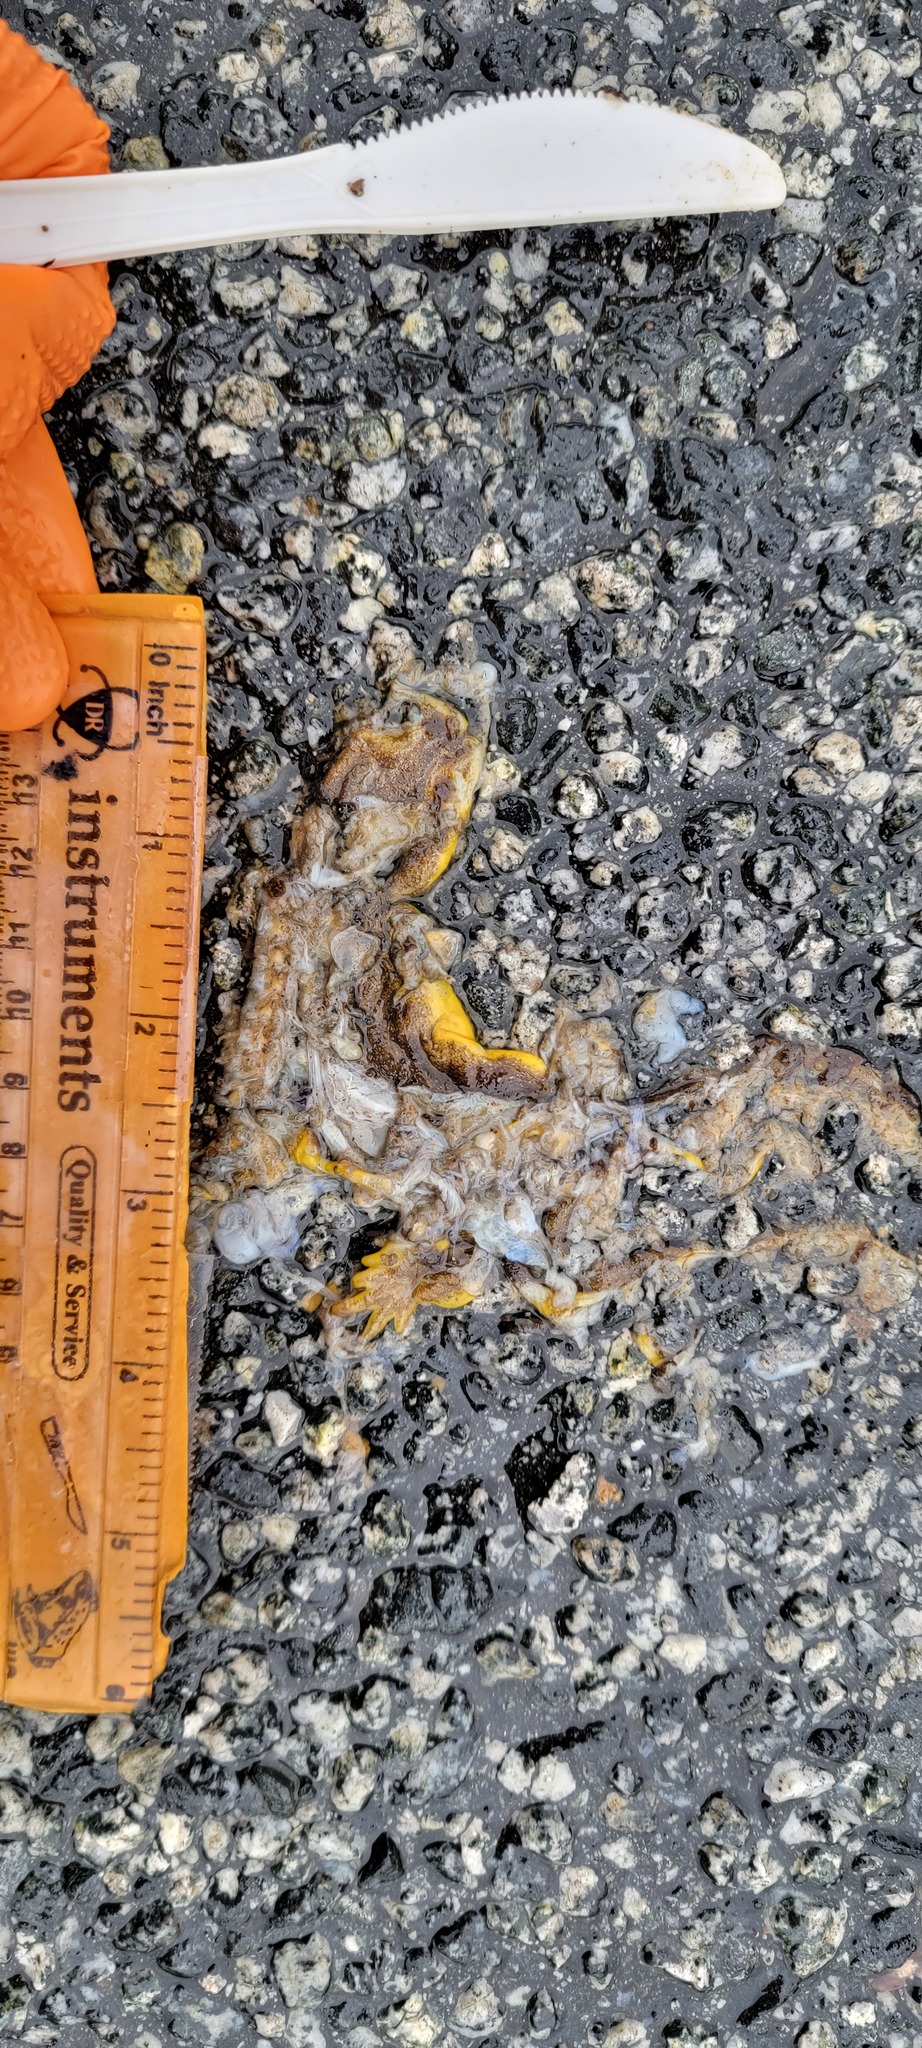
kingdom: Animalia
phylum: Chordata
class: Amphibia
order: Caudata
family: Salamandridae
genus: Taricha
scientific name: Taricha
